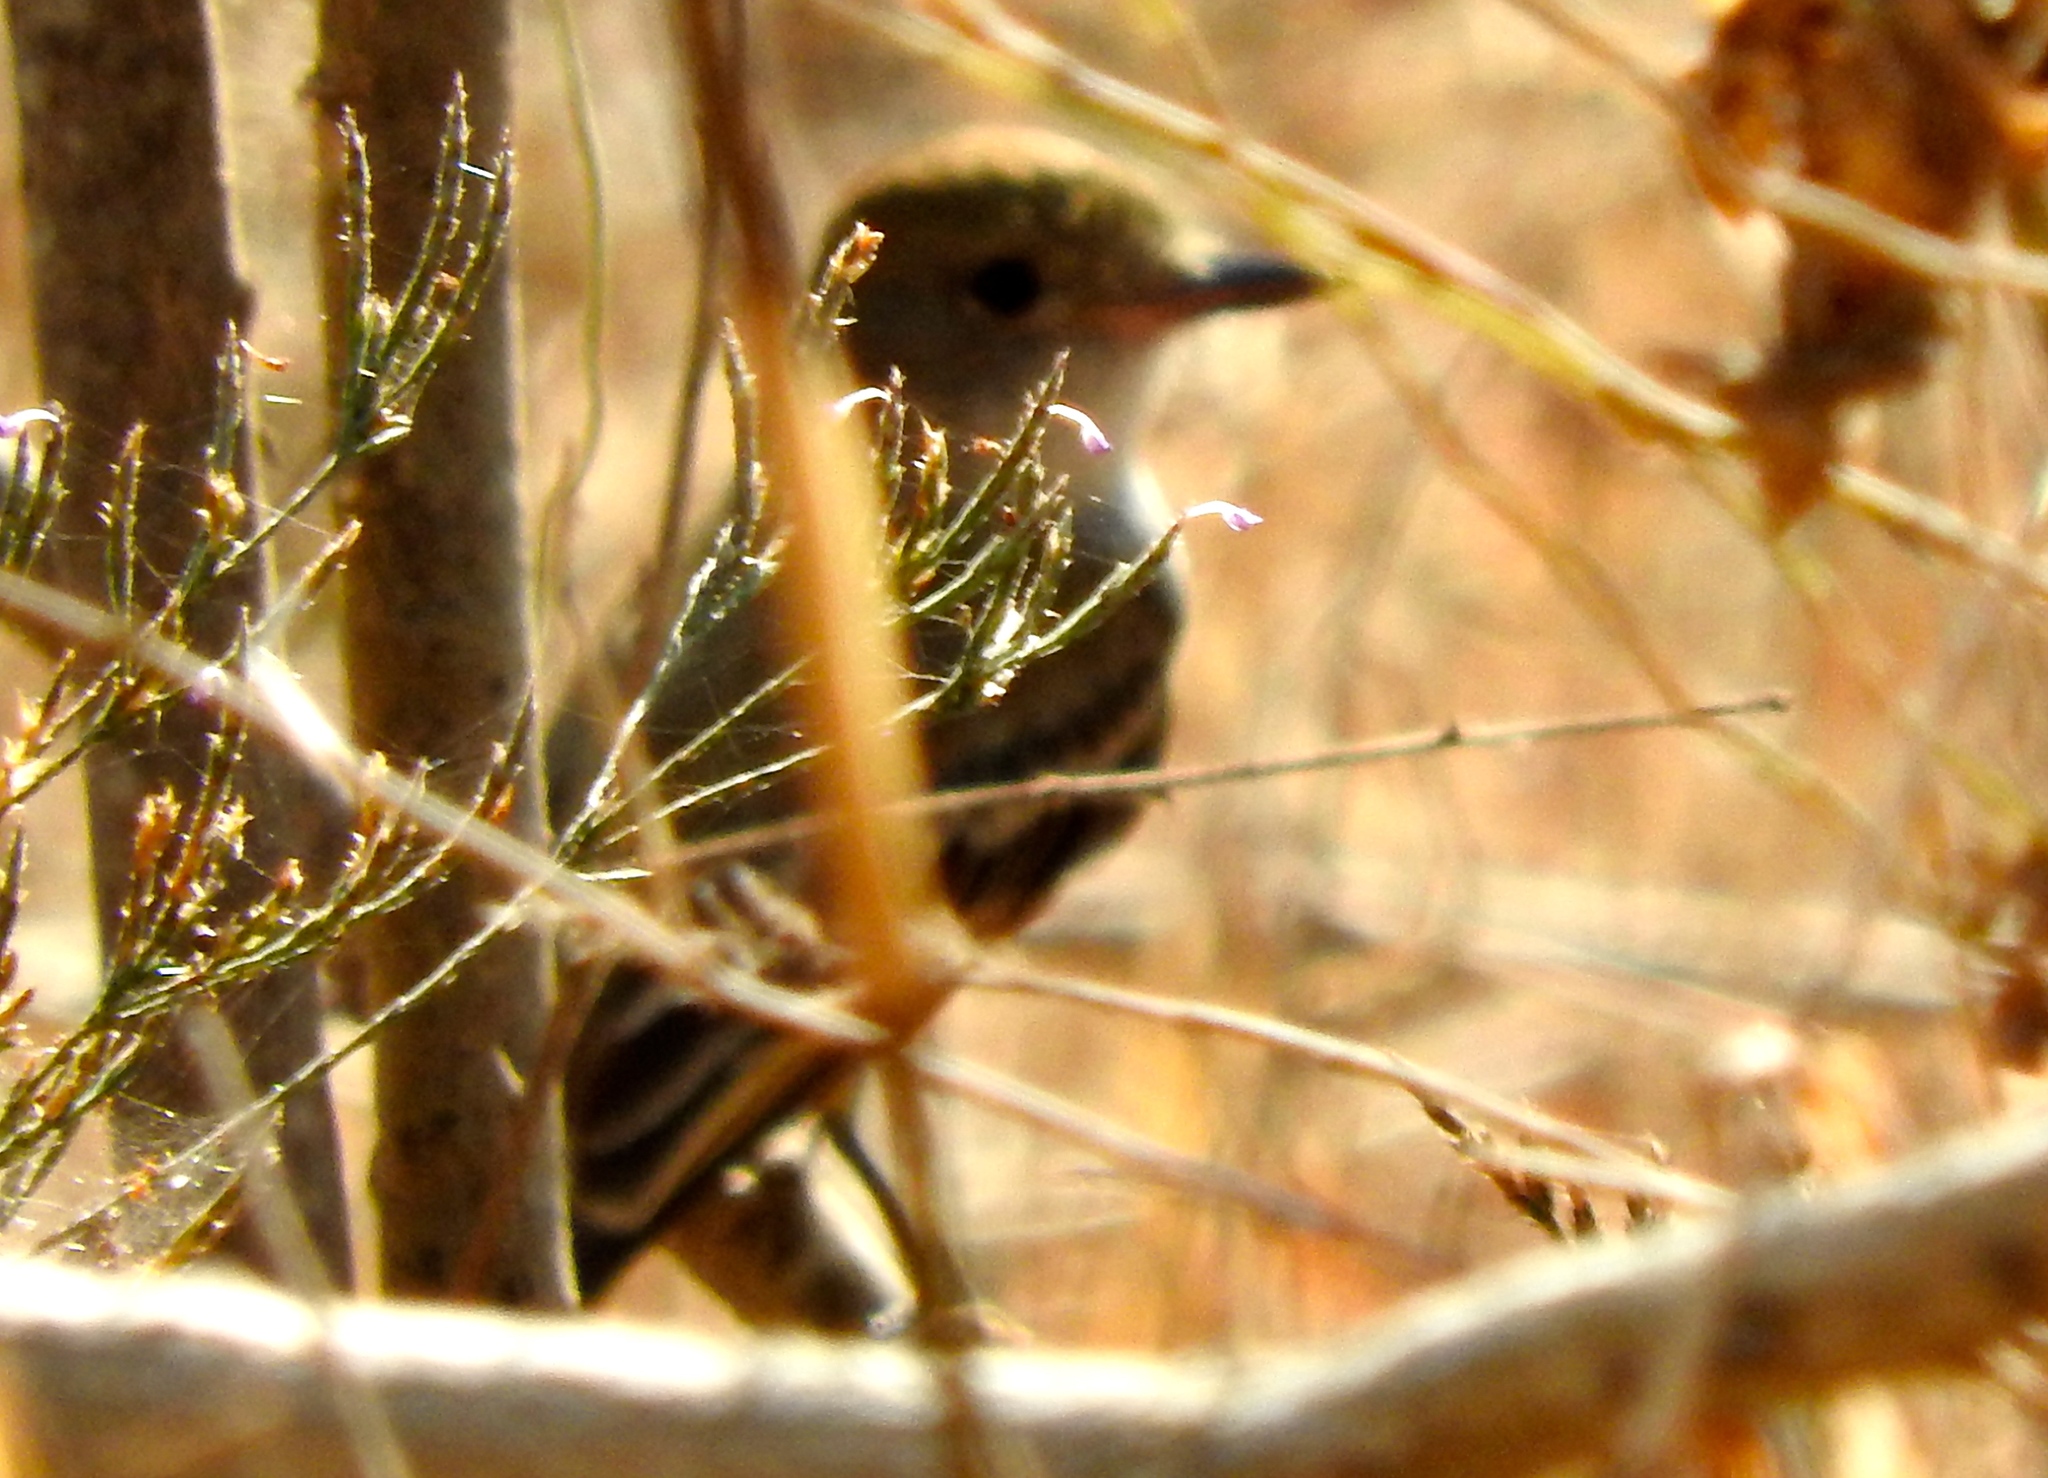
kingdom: Animalia
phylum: Chordata
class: Aves
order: Passeriformes
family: Tyrannidae
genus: Myiarchus
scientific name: Myiarchus
